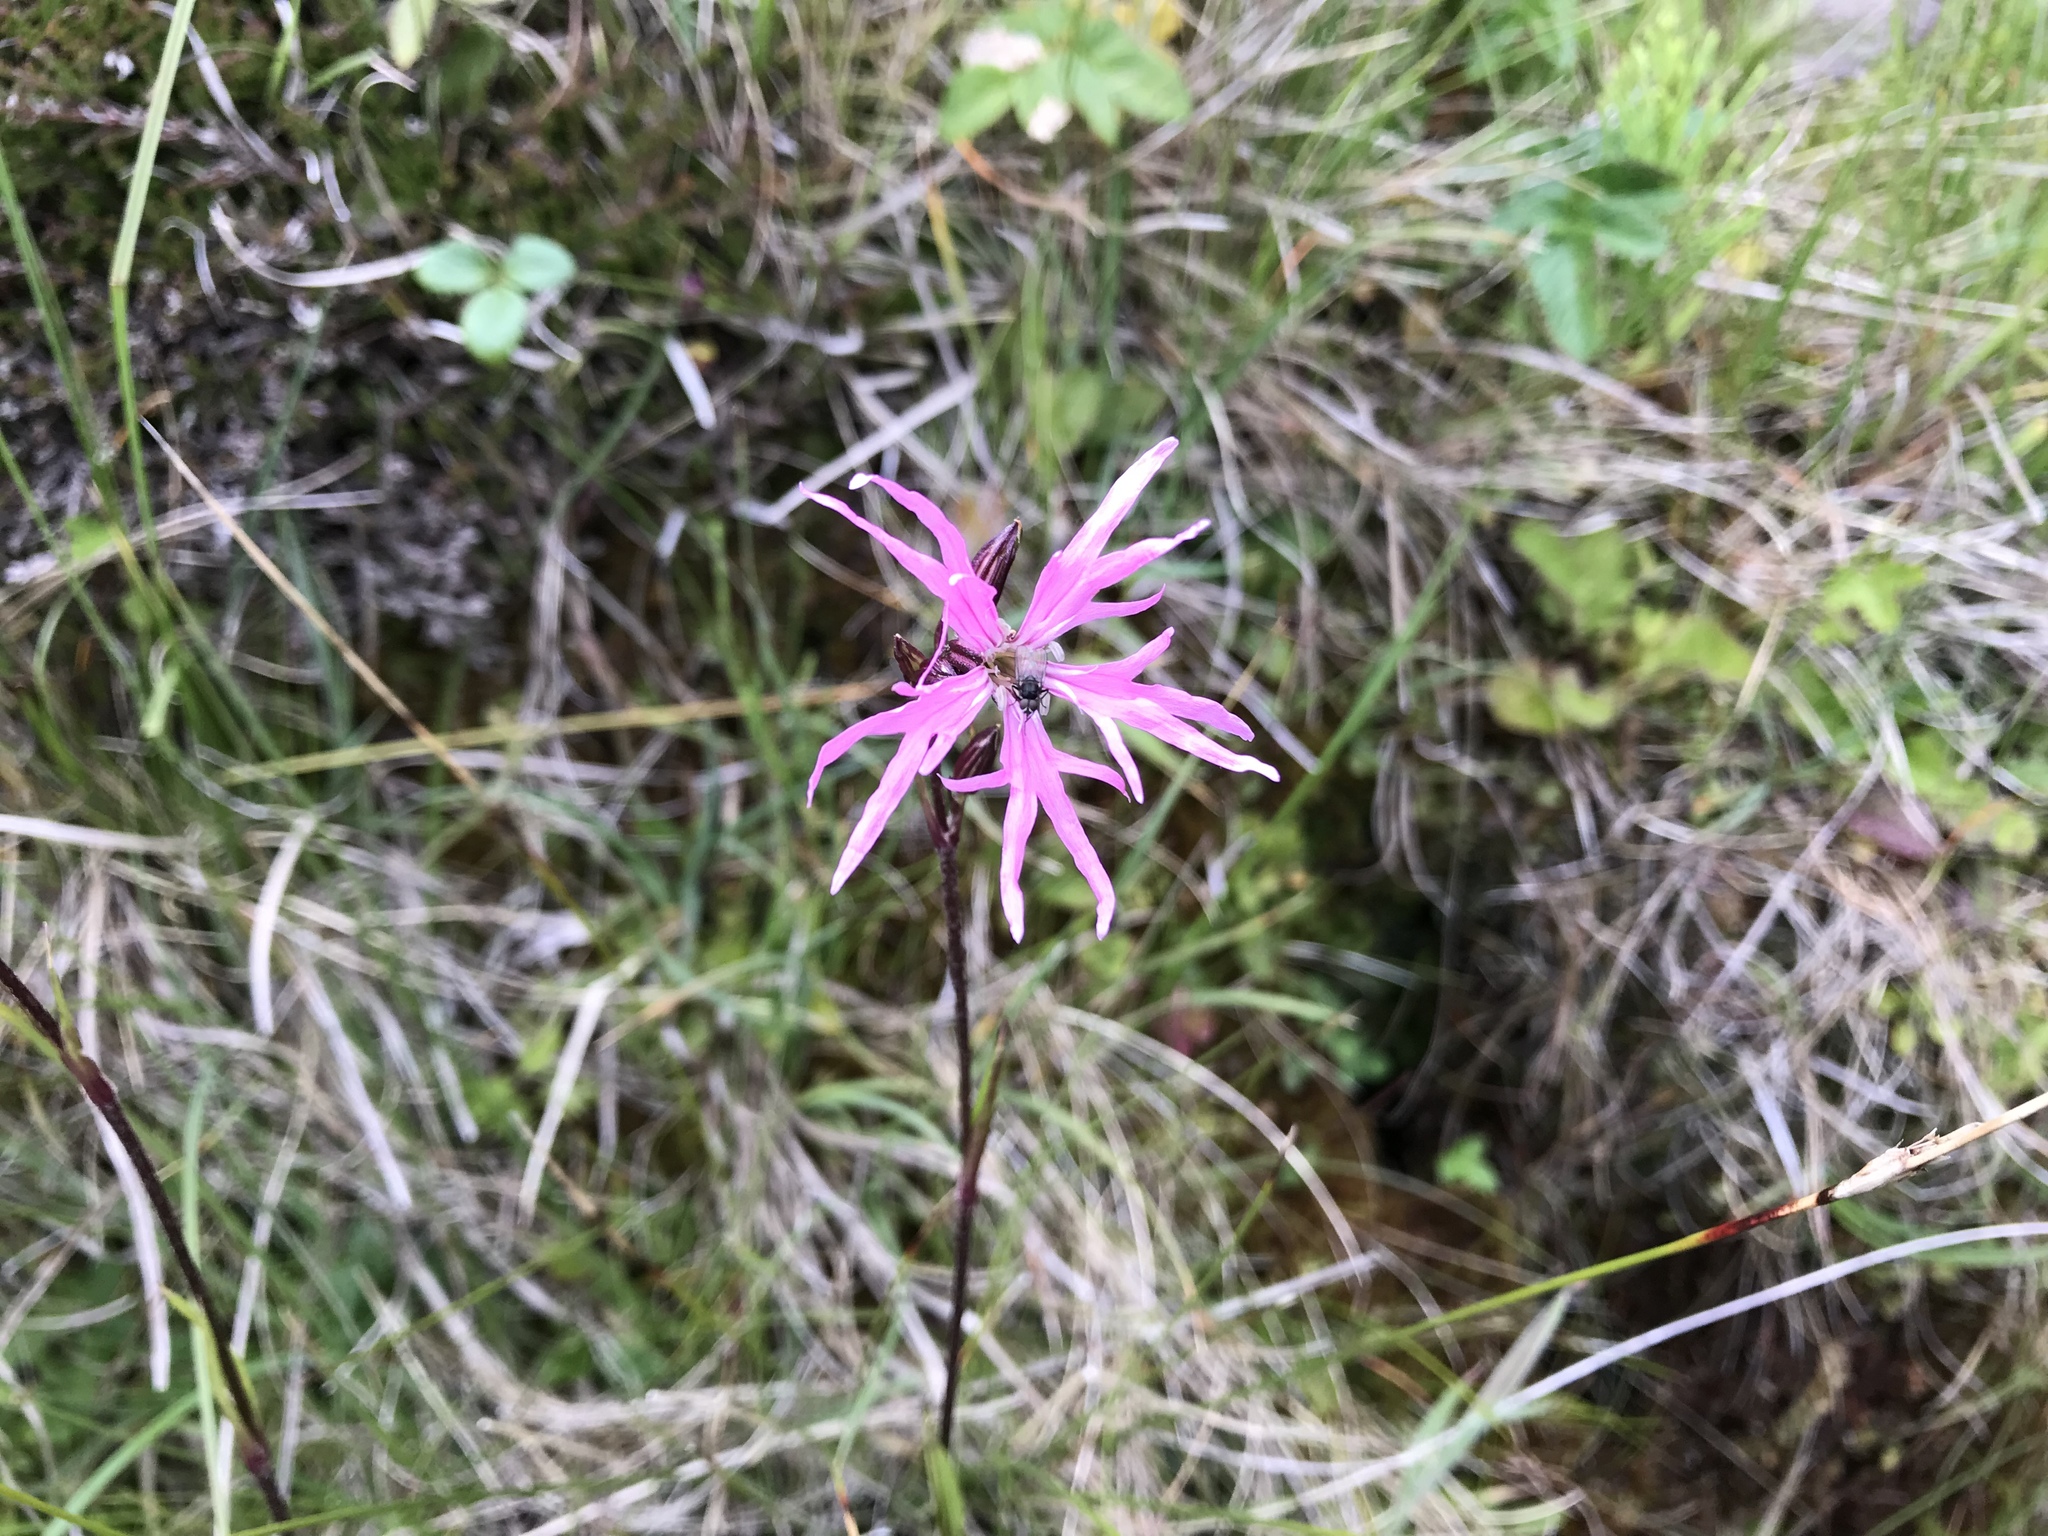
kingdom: Plantae
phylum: Tracheophyta
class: Magnoliopsida
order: Caryophyllales
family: Caryophyllaceae
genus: Silene
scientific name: Silene flos-cuculi
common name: Ragged-robin
